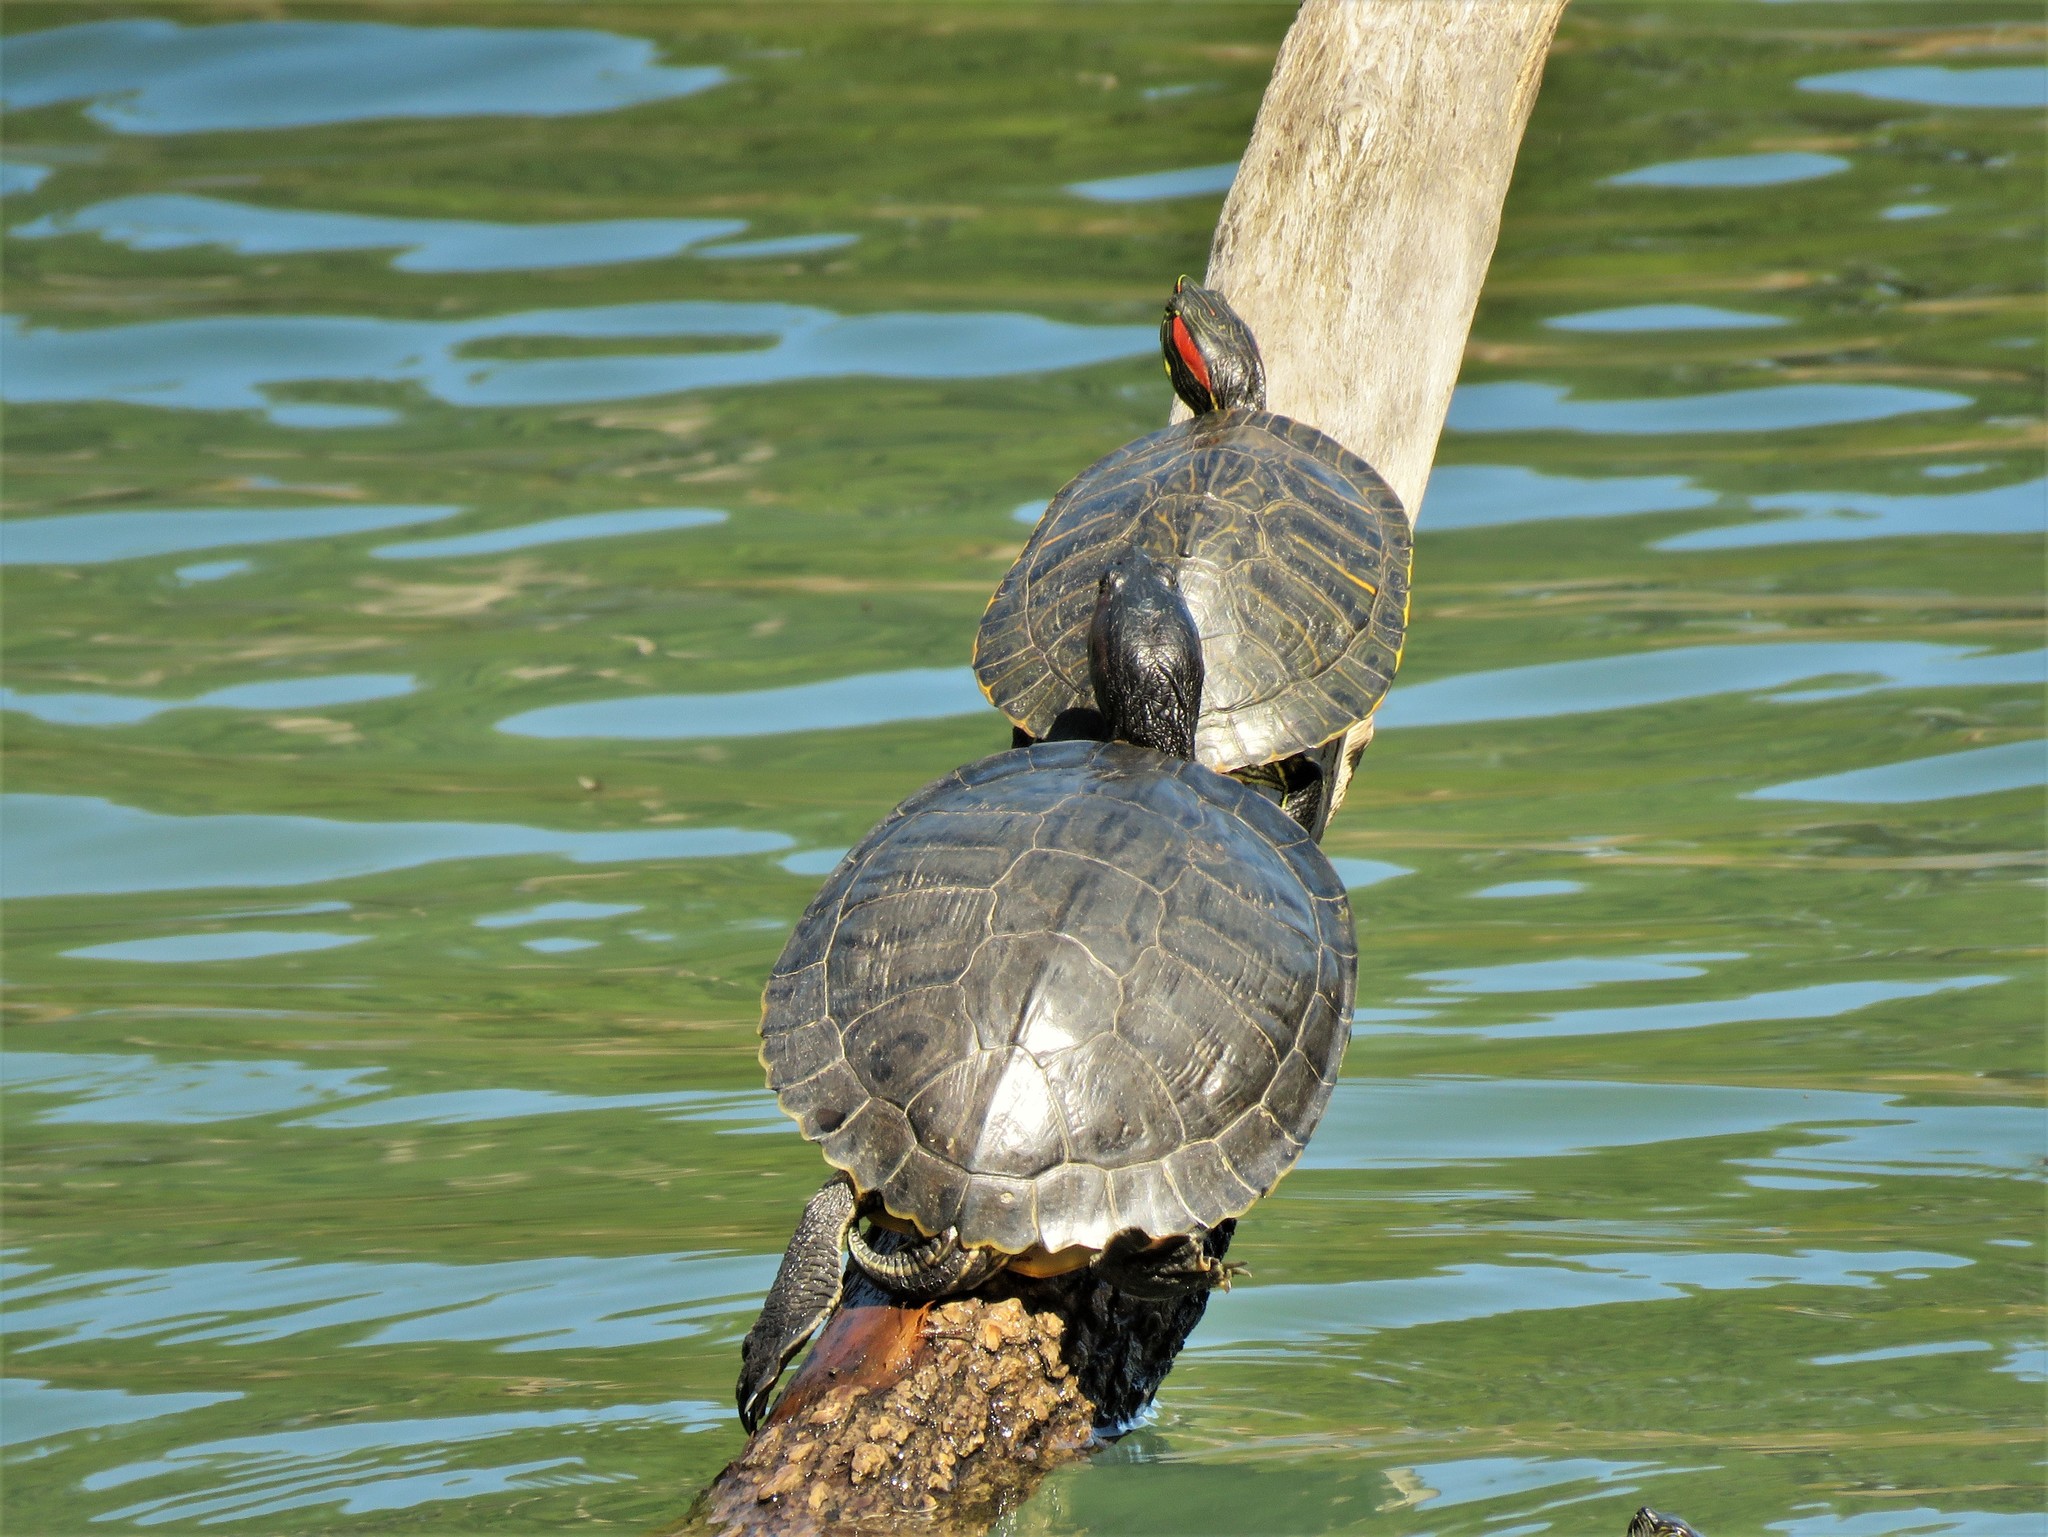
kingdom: Animalia
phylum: Chordata
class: Testudines
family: Emydidae
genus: Trachemys
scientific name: Trachemys scripta
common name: Slider
